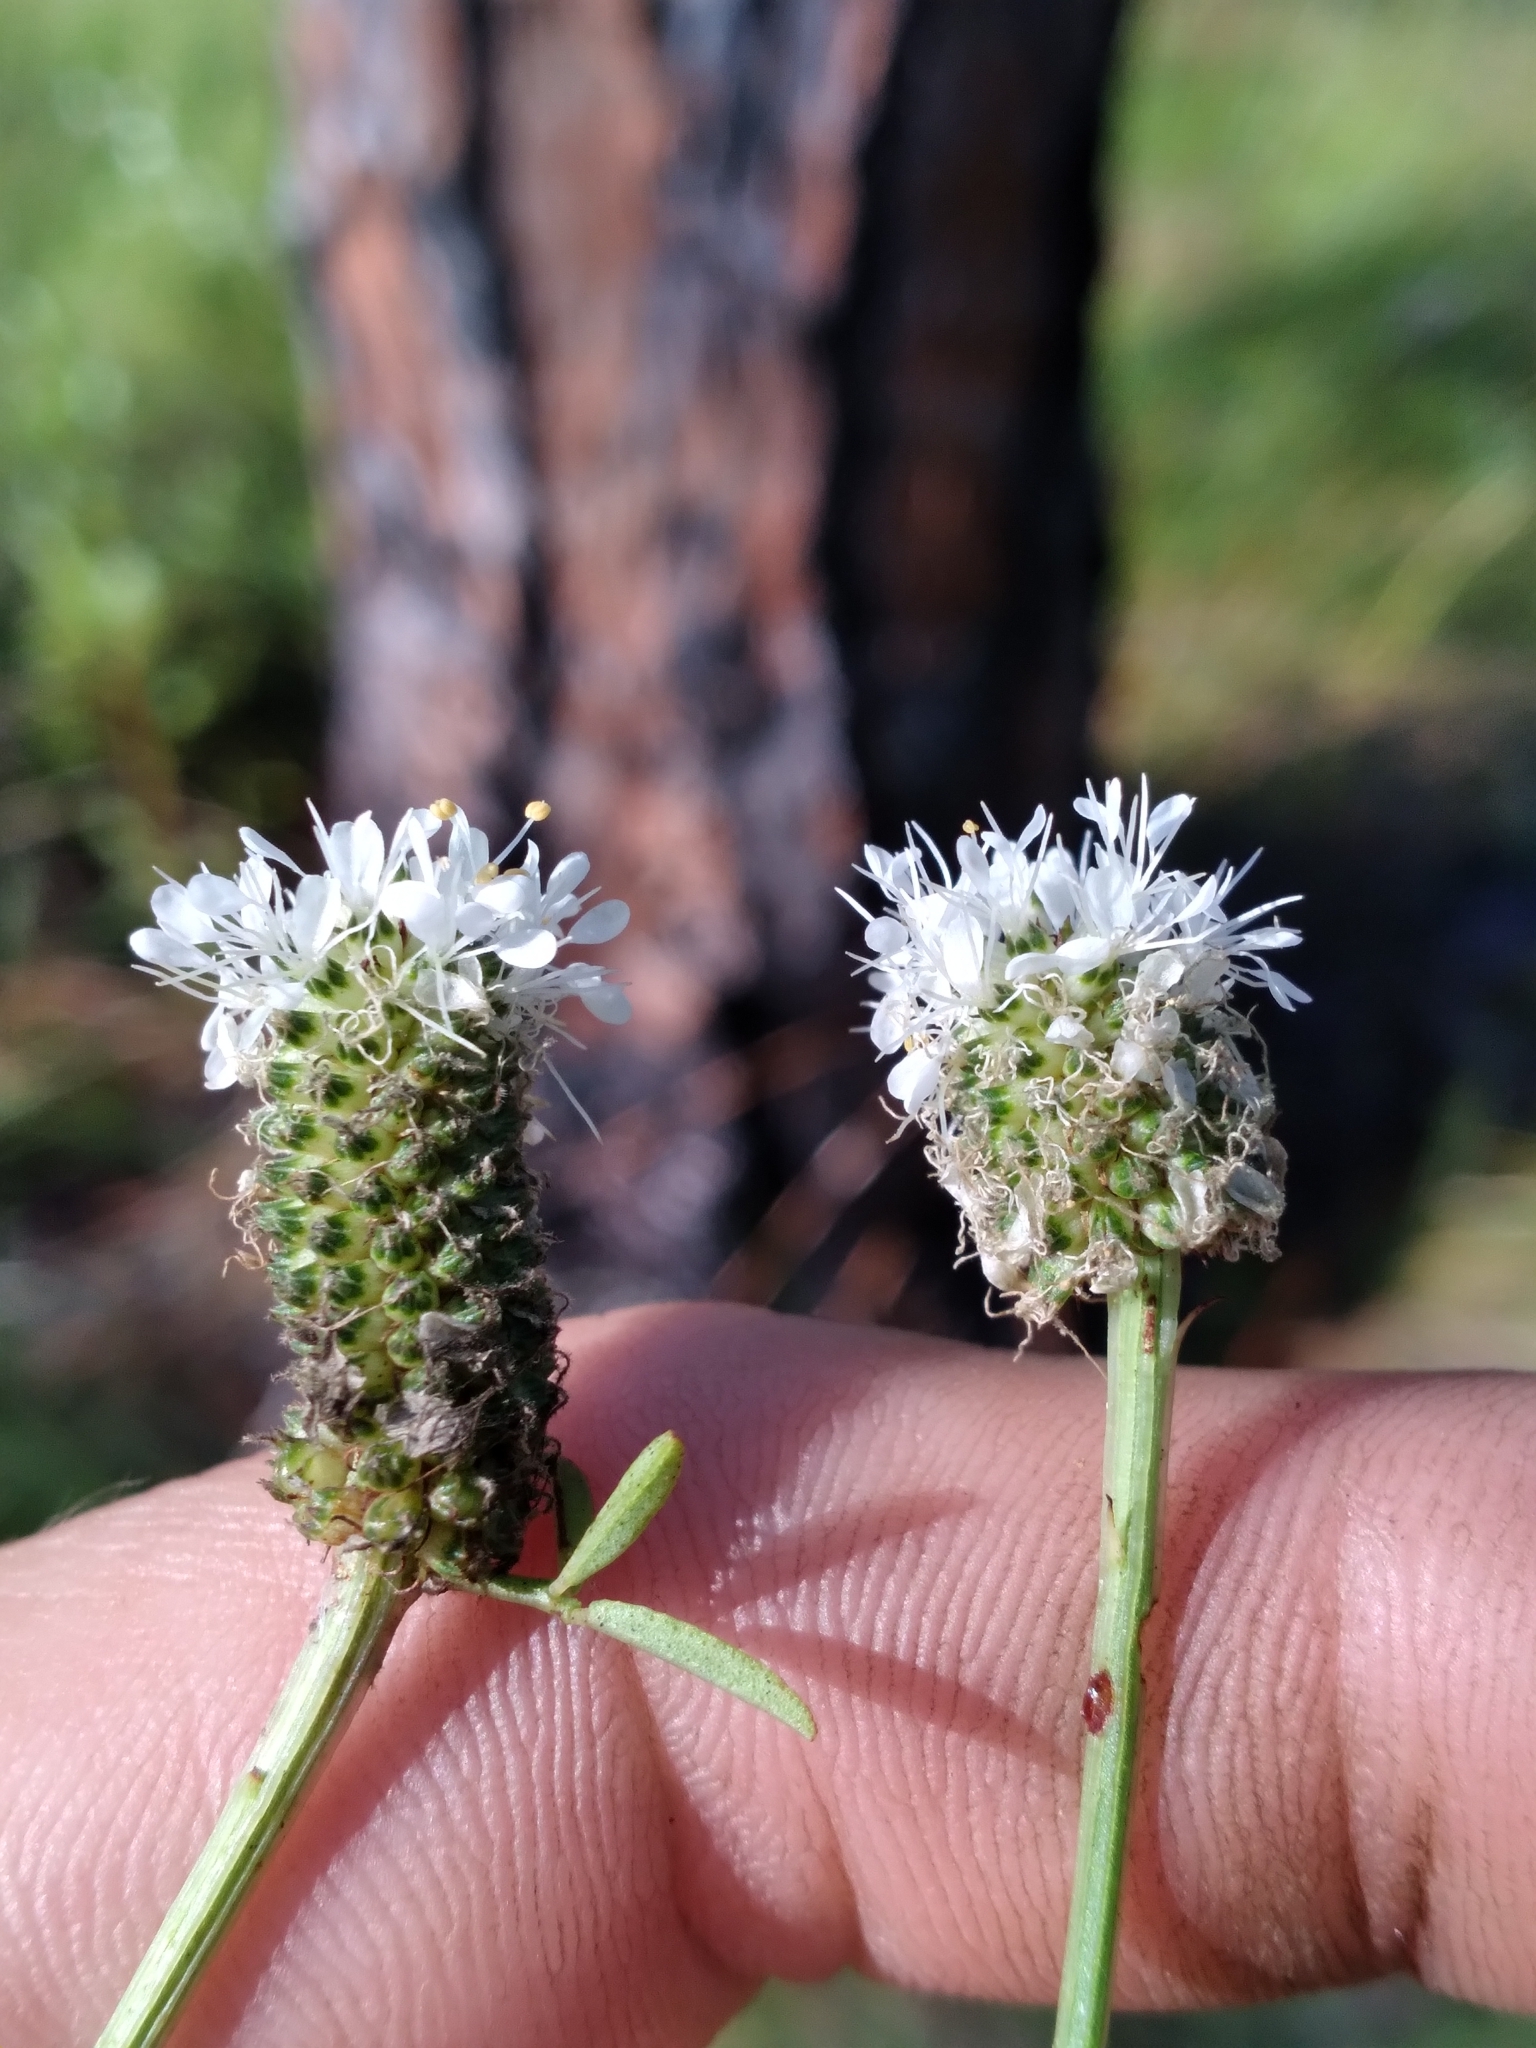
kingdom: Plantae
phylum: Tracheophyta
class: Magnoliopsida
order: Fabales
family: Fabaceae
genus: Dalea
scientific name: Dalea mountjoyae
